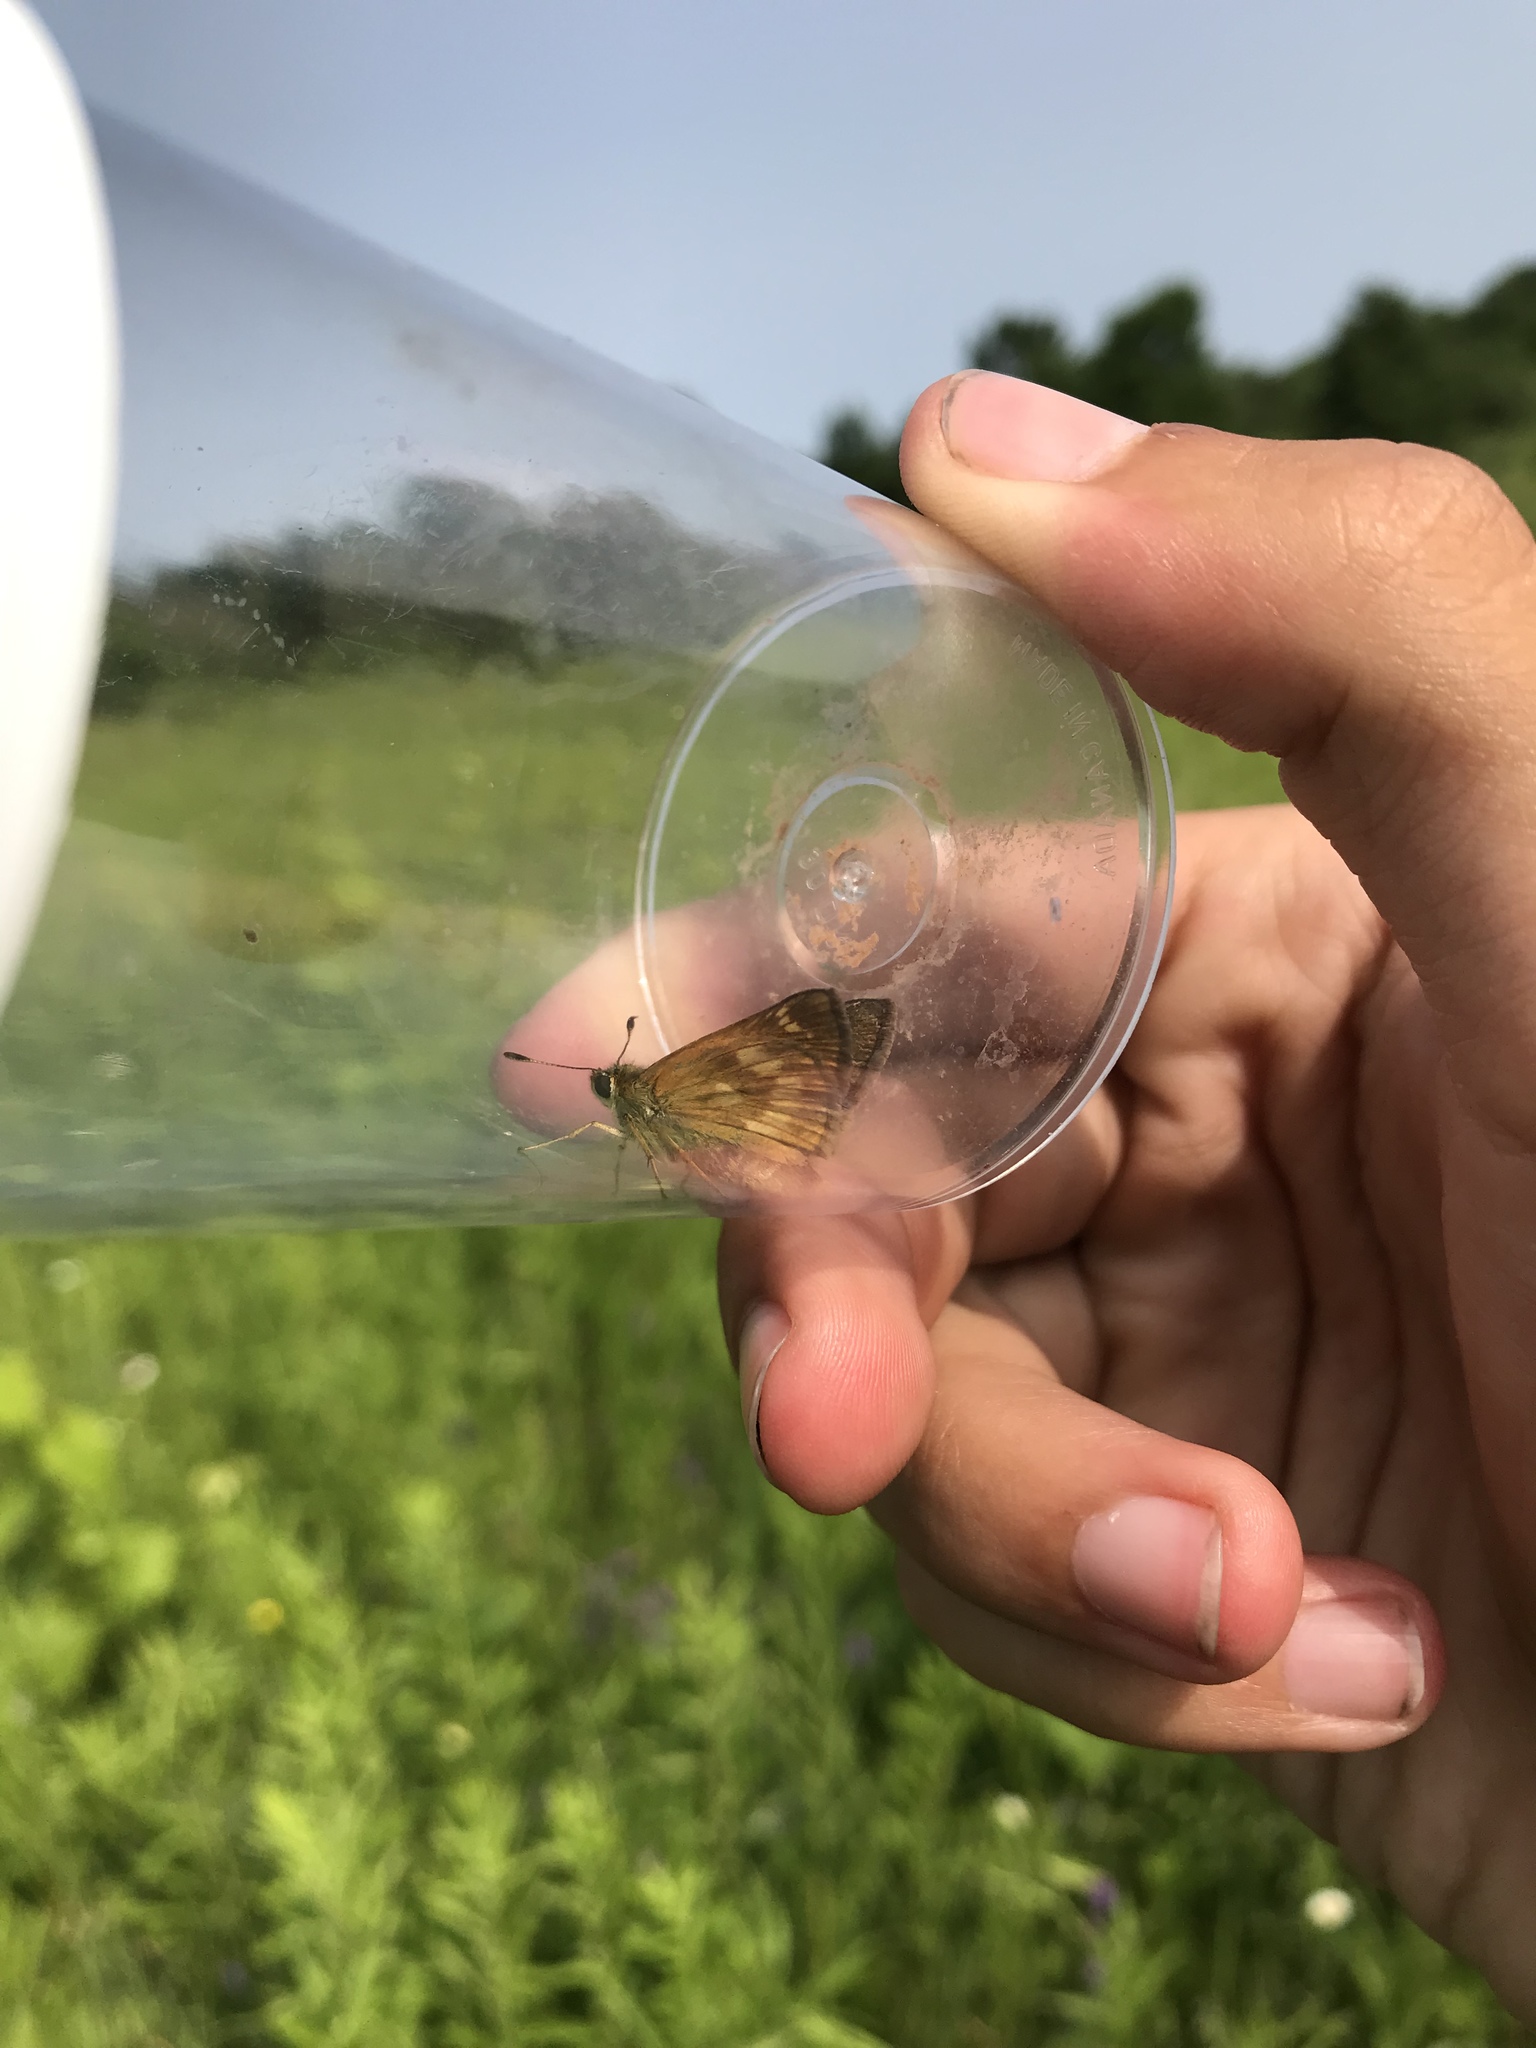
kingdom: Animalia
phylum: Arthropoda
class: Insecta
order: Lepidoptera
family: Hesperiidae
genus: Polites
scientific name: Polites mystic
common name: Long dash
